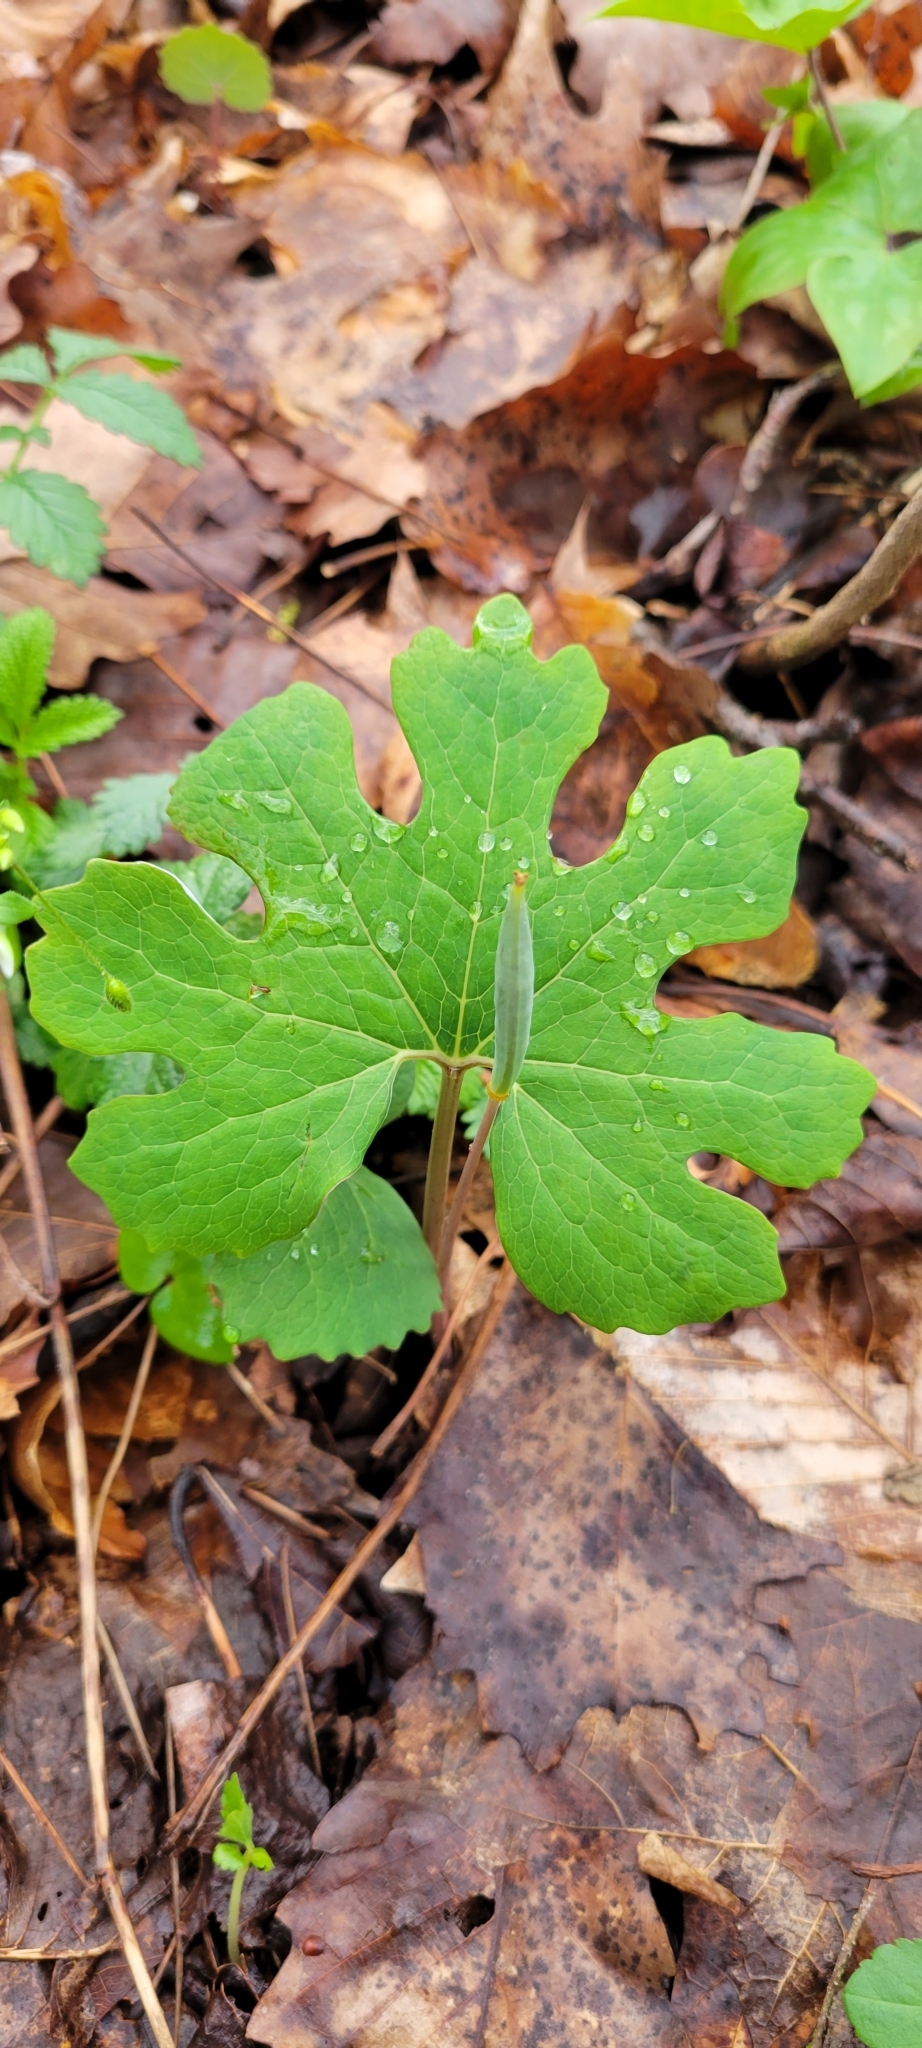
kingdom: Plantae
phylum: Tracheophyta
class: Magnoliopsida
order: Ranunculales
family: Papaveraceae
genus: Sanguinaria
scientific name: Sanguinaria canadensis
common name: Bloodroot
